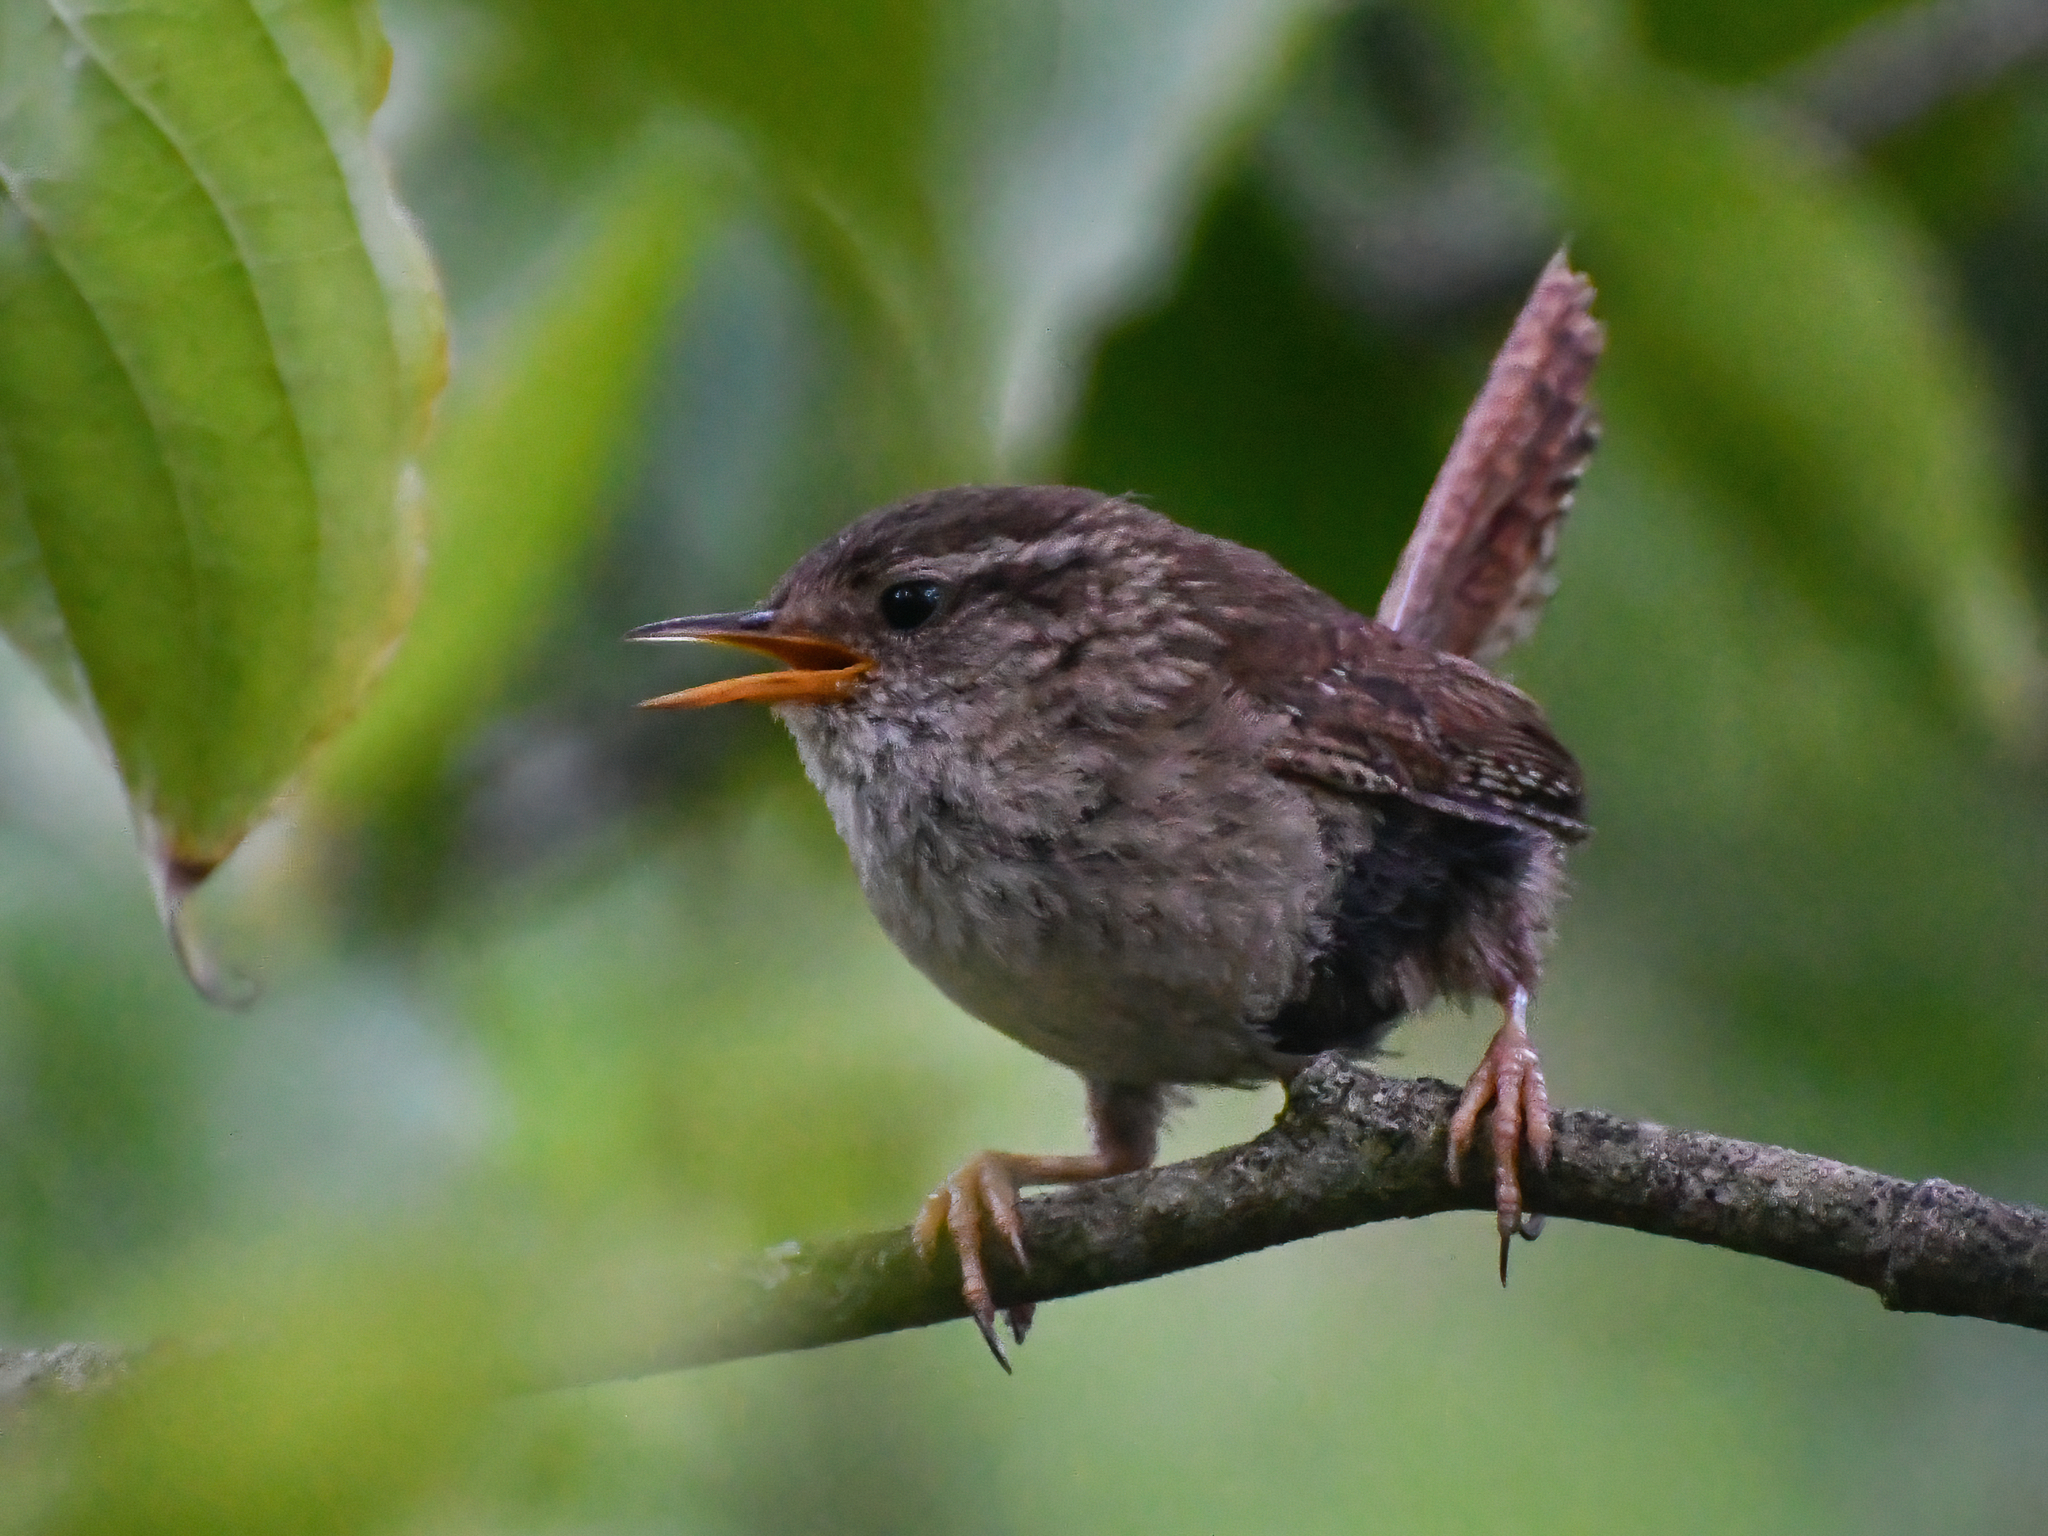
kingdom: Animalia
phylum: Chordata
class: Aves
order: Passeriformes
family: Troglodytidae
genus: Troglodytes
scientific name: Troglodytes troglodytes
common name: Eurasian wren
